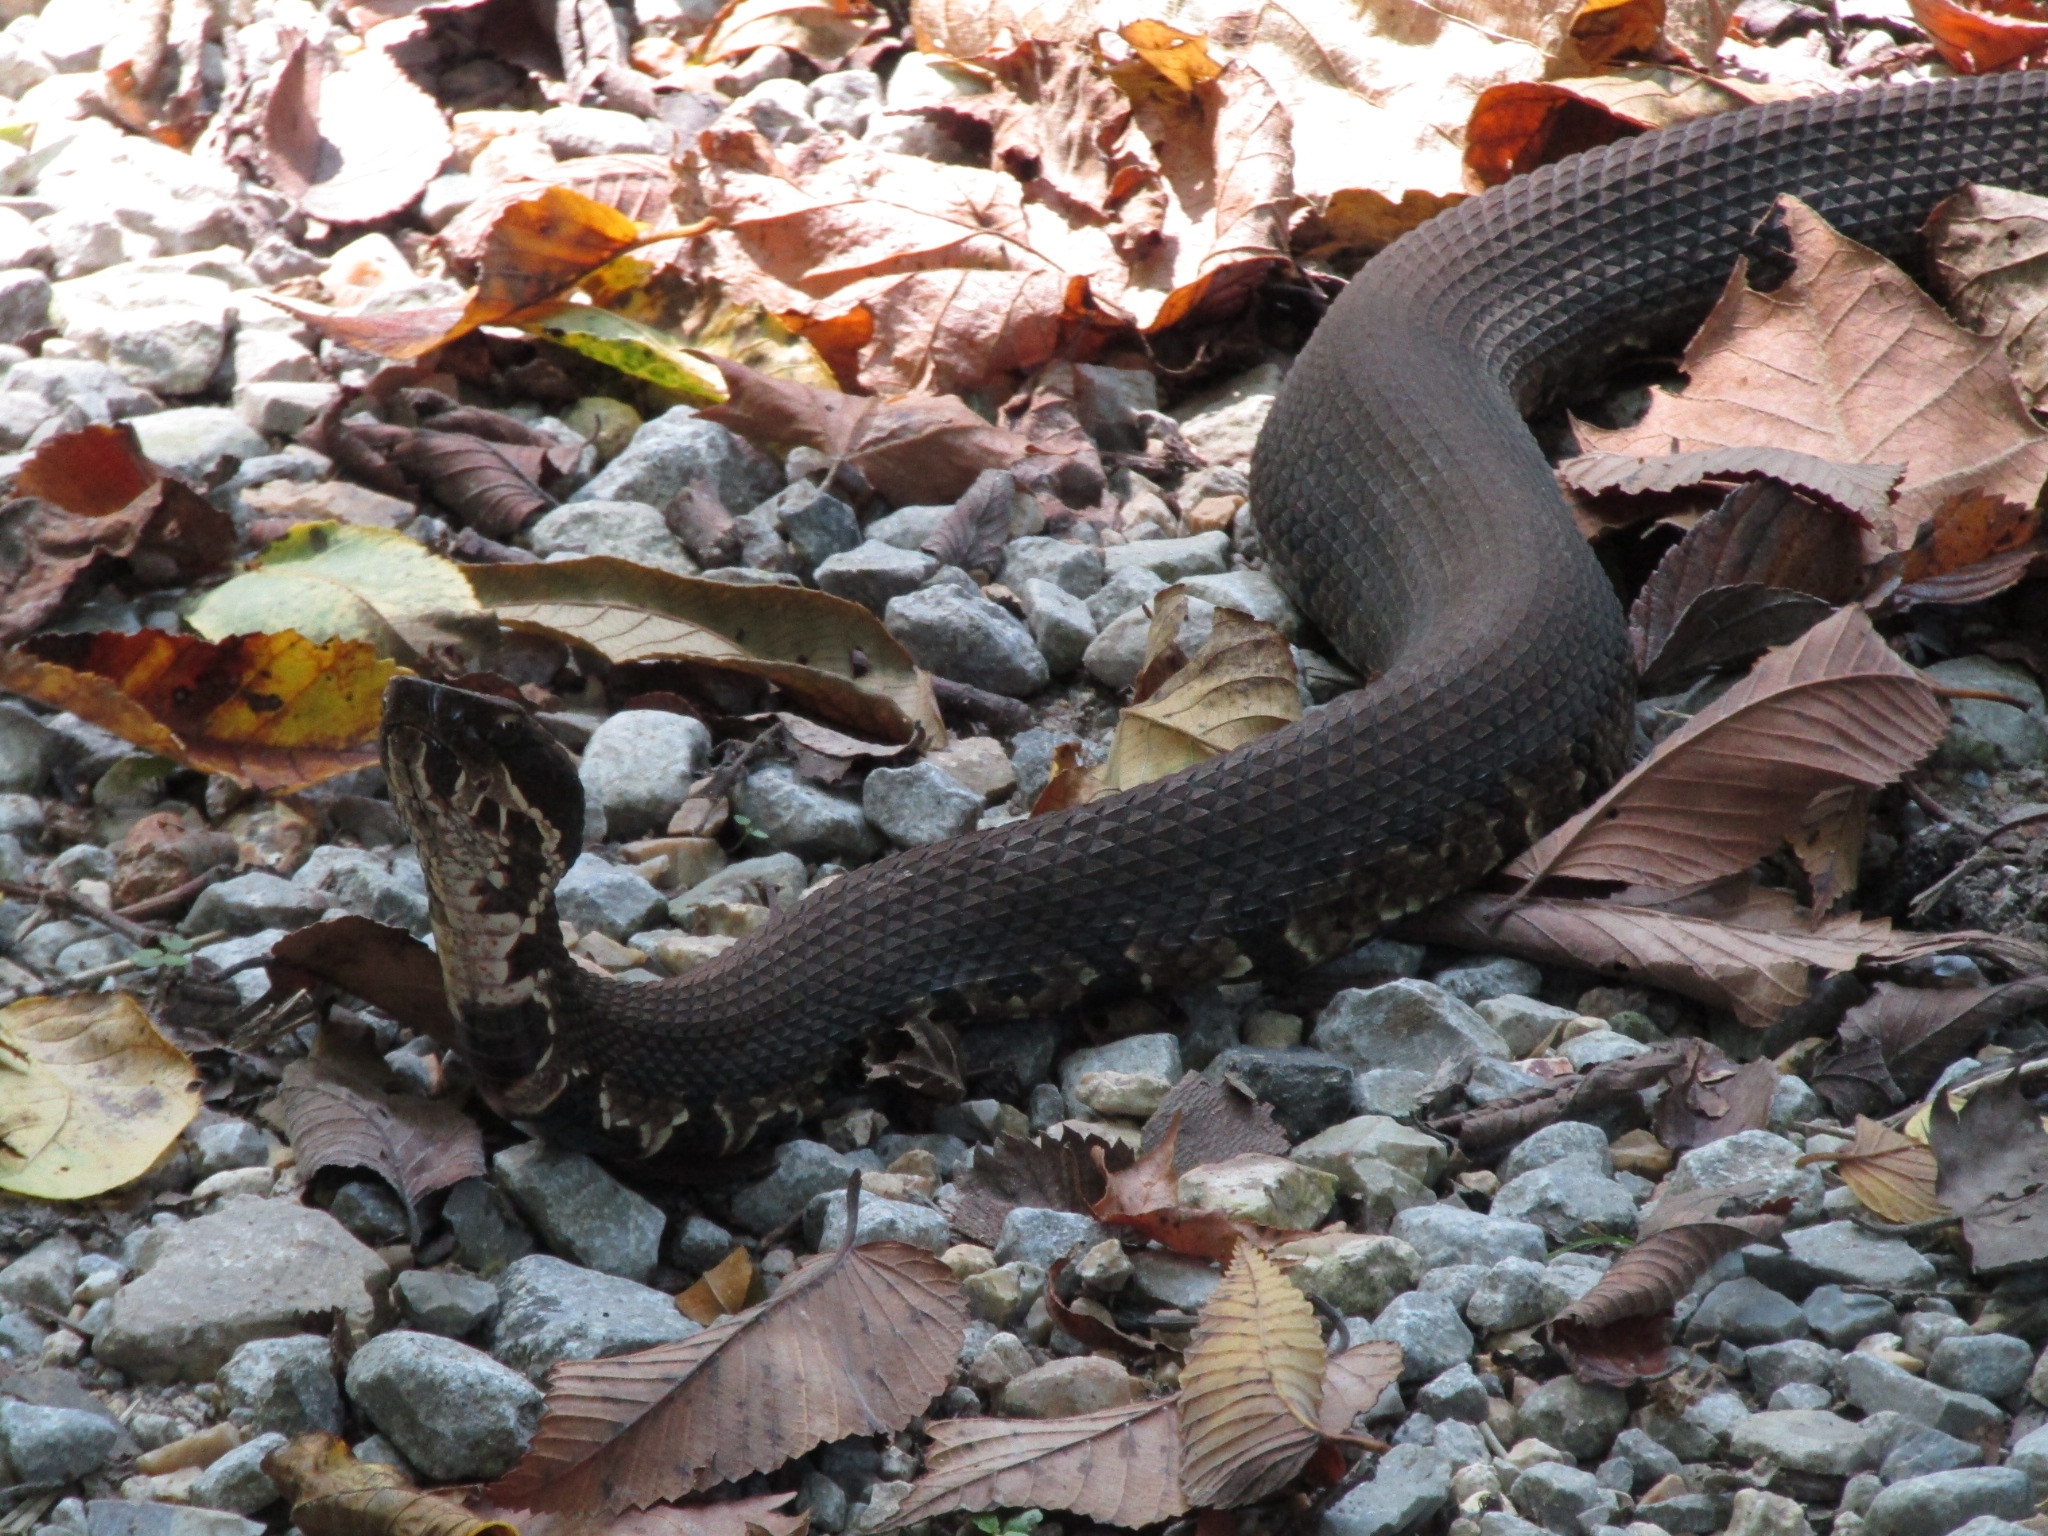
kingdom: Animalia
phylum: Chordata
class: Squamata
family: Viperidae
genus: Agkistrodon
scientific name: Agkistrodon piscivorus
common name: Cottonmouth
